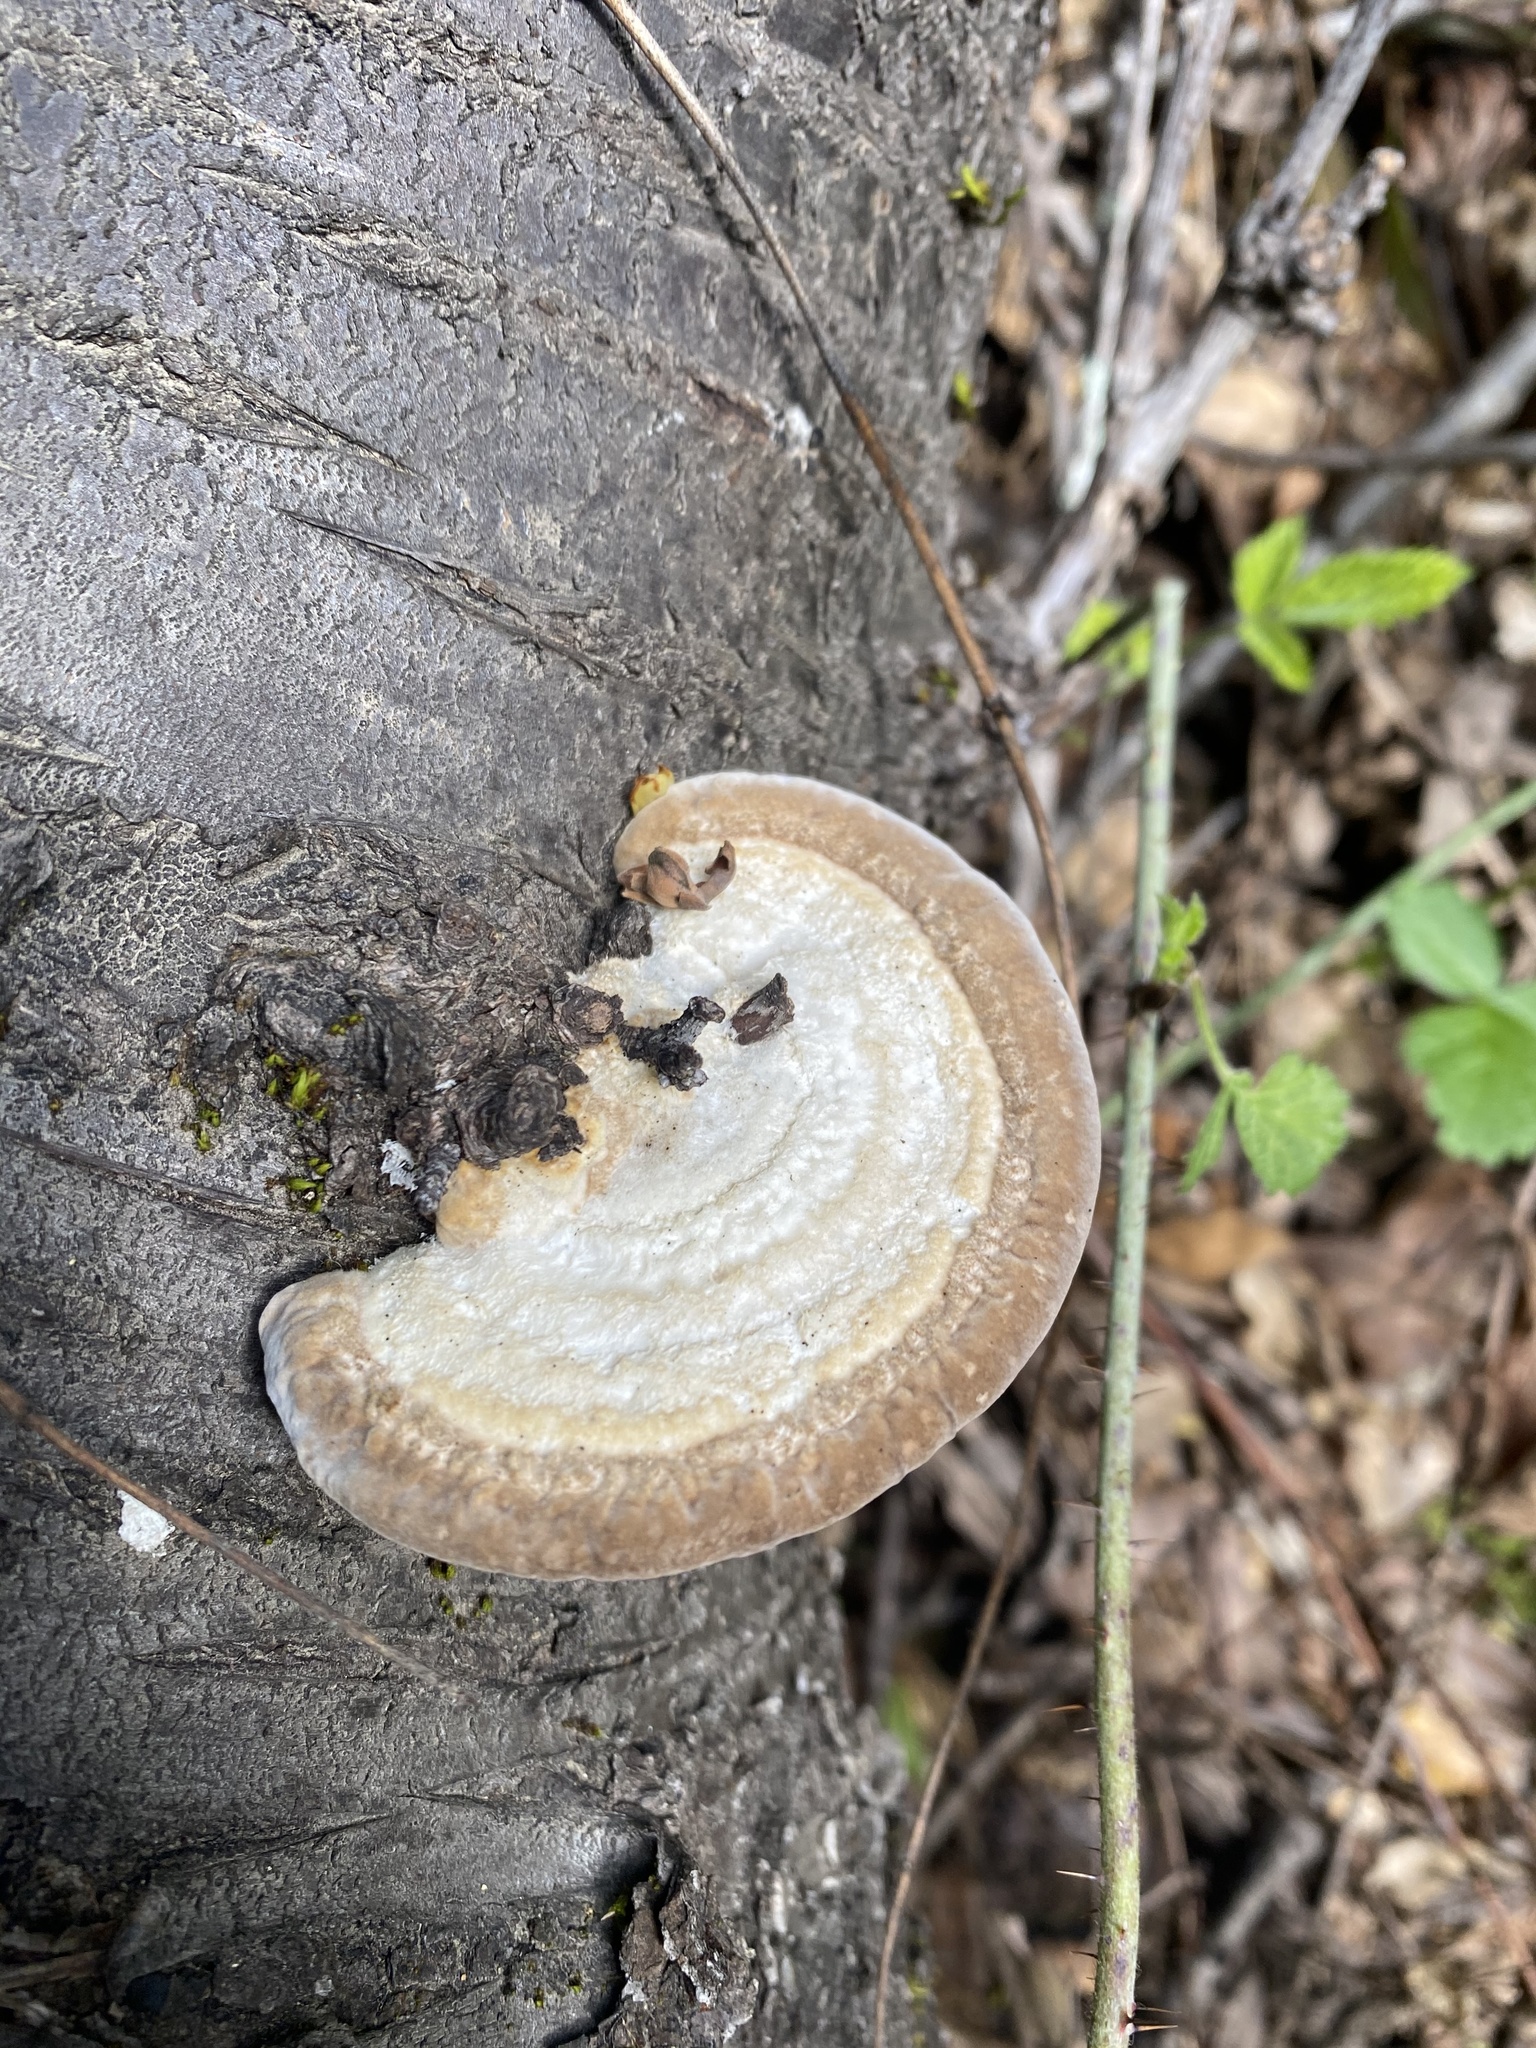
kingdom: Fungi
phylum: Basidiomycota
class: Agaricomycetes
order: Polyporales
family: Polyporaceae
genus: Trametes
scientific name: Trametes hirsuta
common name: Hairy bracket
